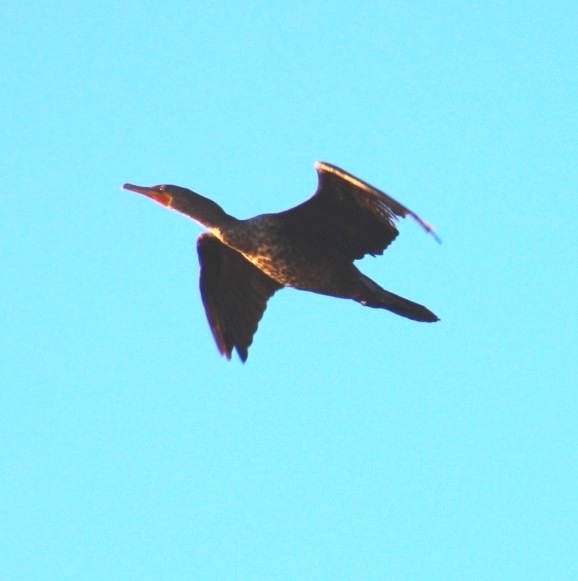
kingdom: Animalia
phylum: Chordata
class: Aves
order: Suliformes
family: Phalacrocoracidae
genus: Phalacrocorax
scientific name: Phalacrocorax auritus
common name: Double-crested cormorant
